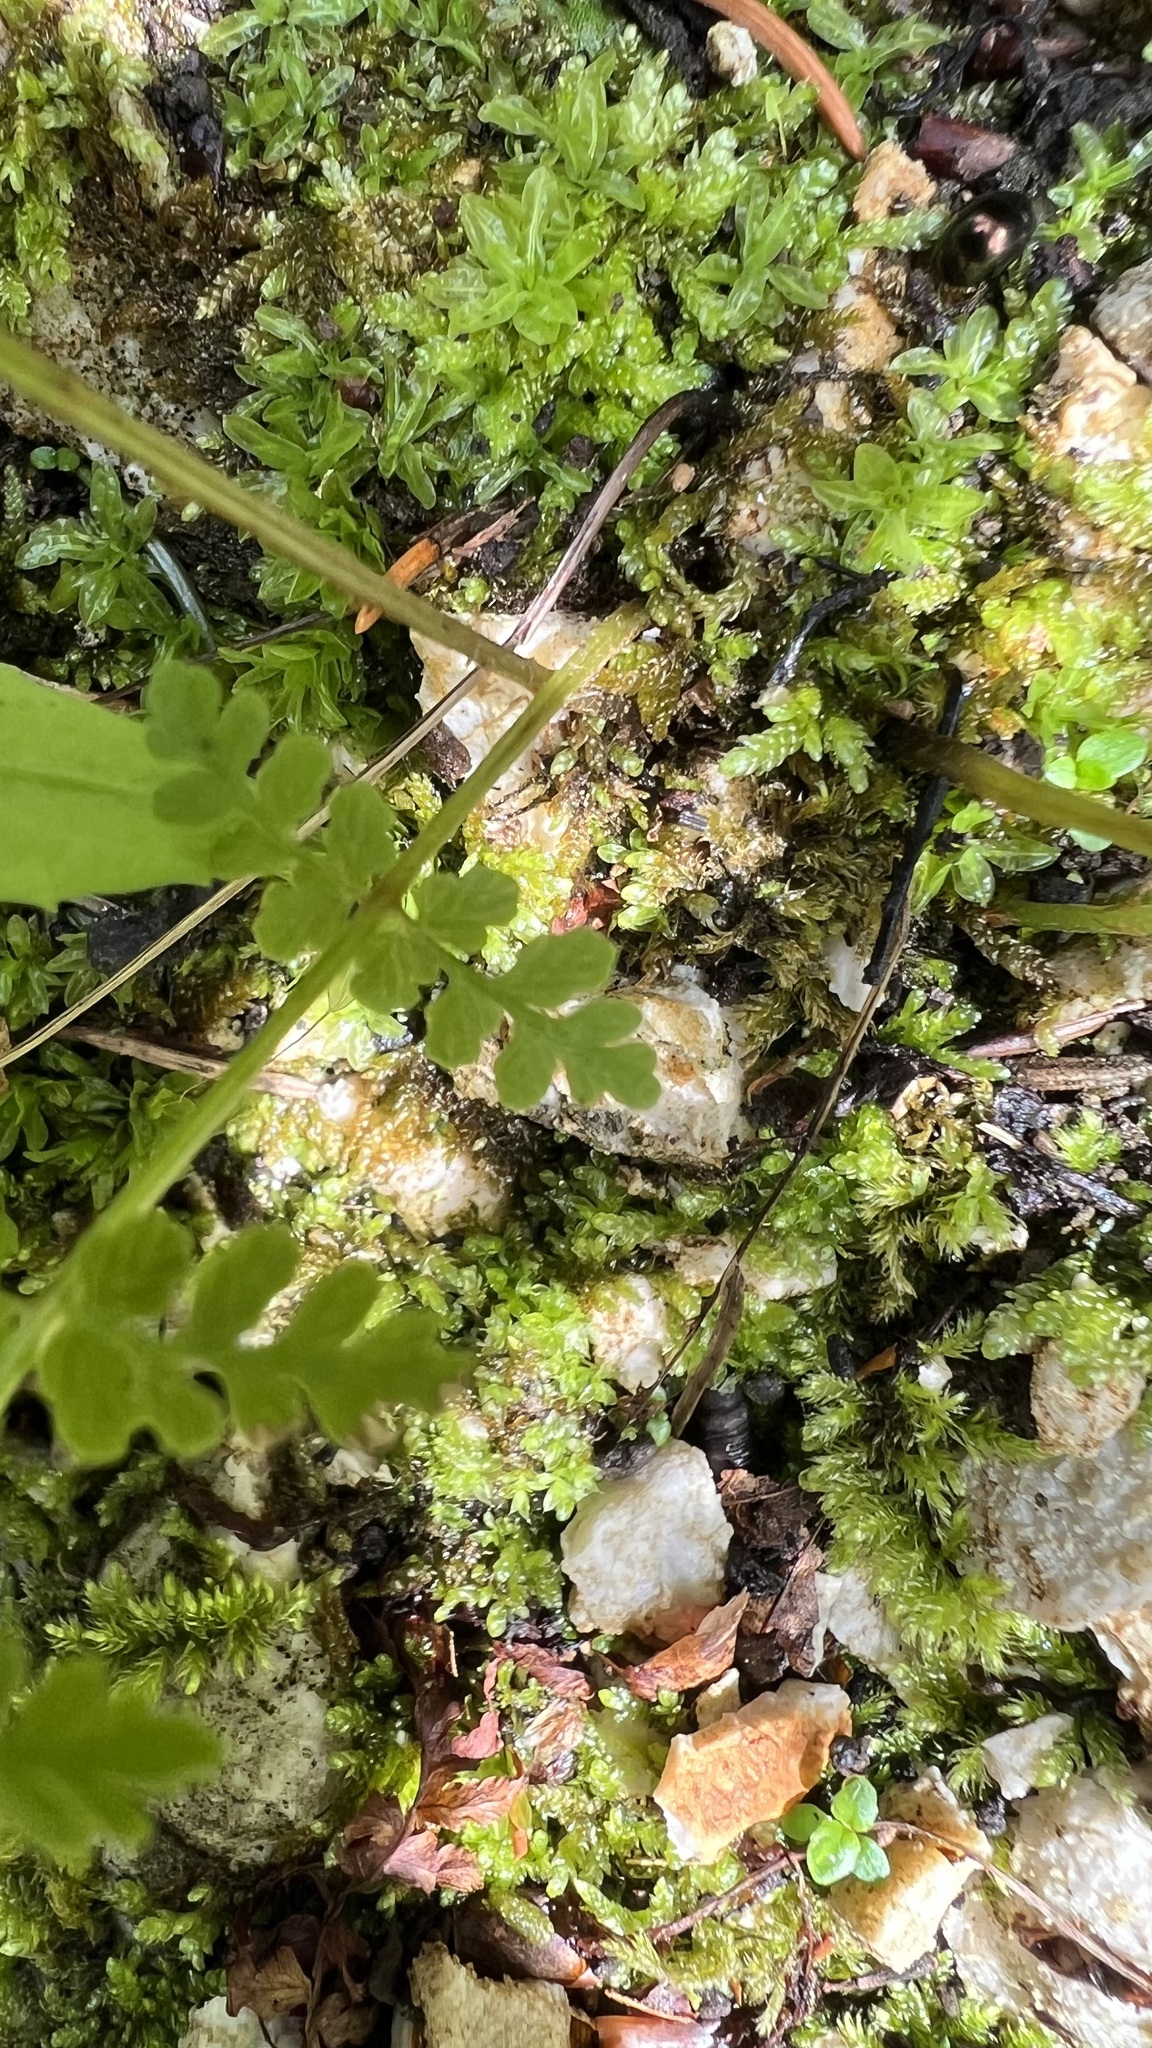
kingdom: Plantae
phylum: Tracheophyta
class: Polypodiopsida
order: Polypodiales
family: Cystopteridaceae
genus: Cystopteris
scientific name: Cystopteris fragilis
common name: Brittle bladder fern
